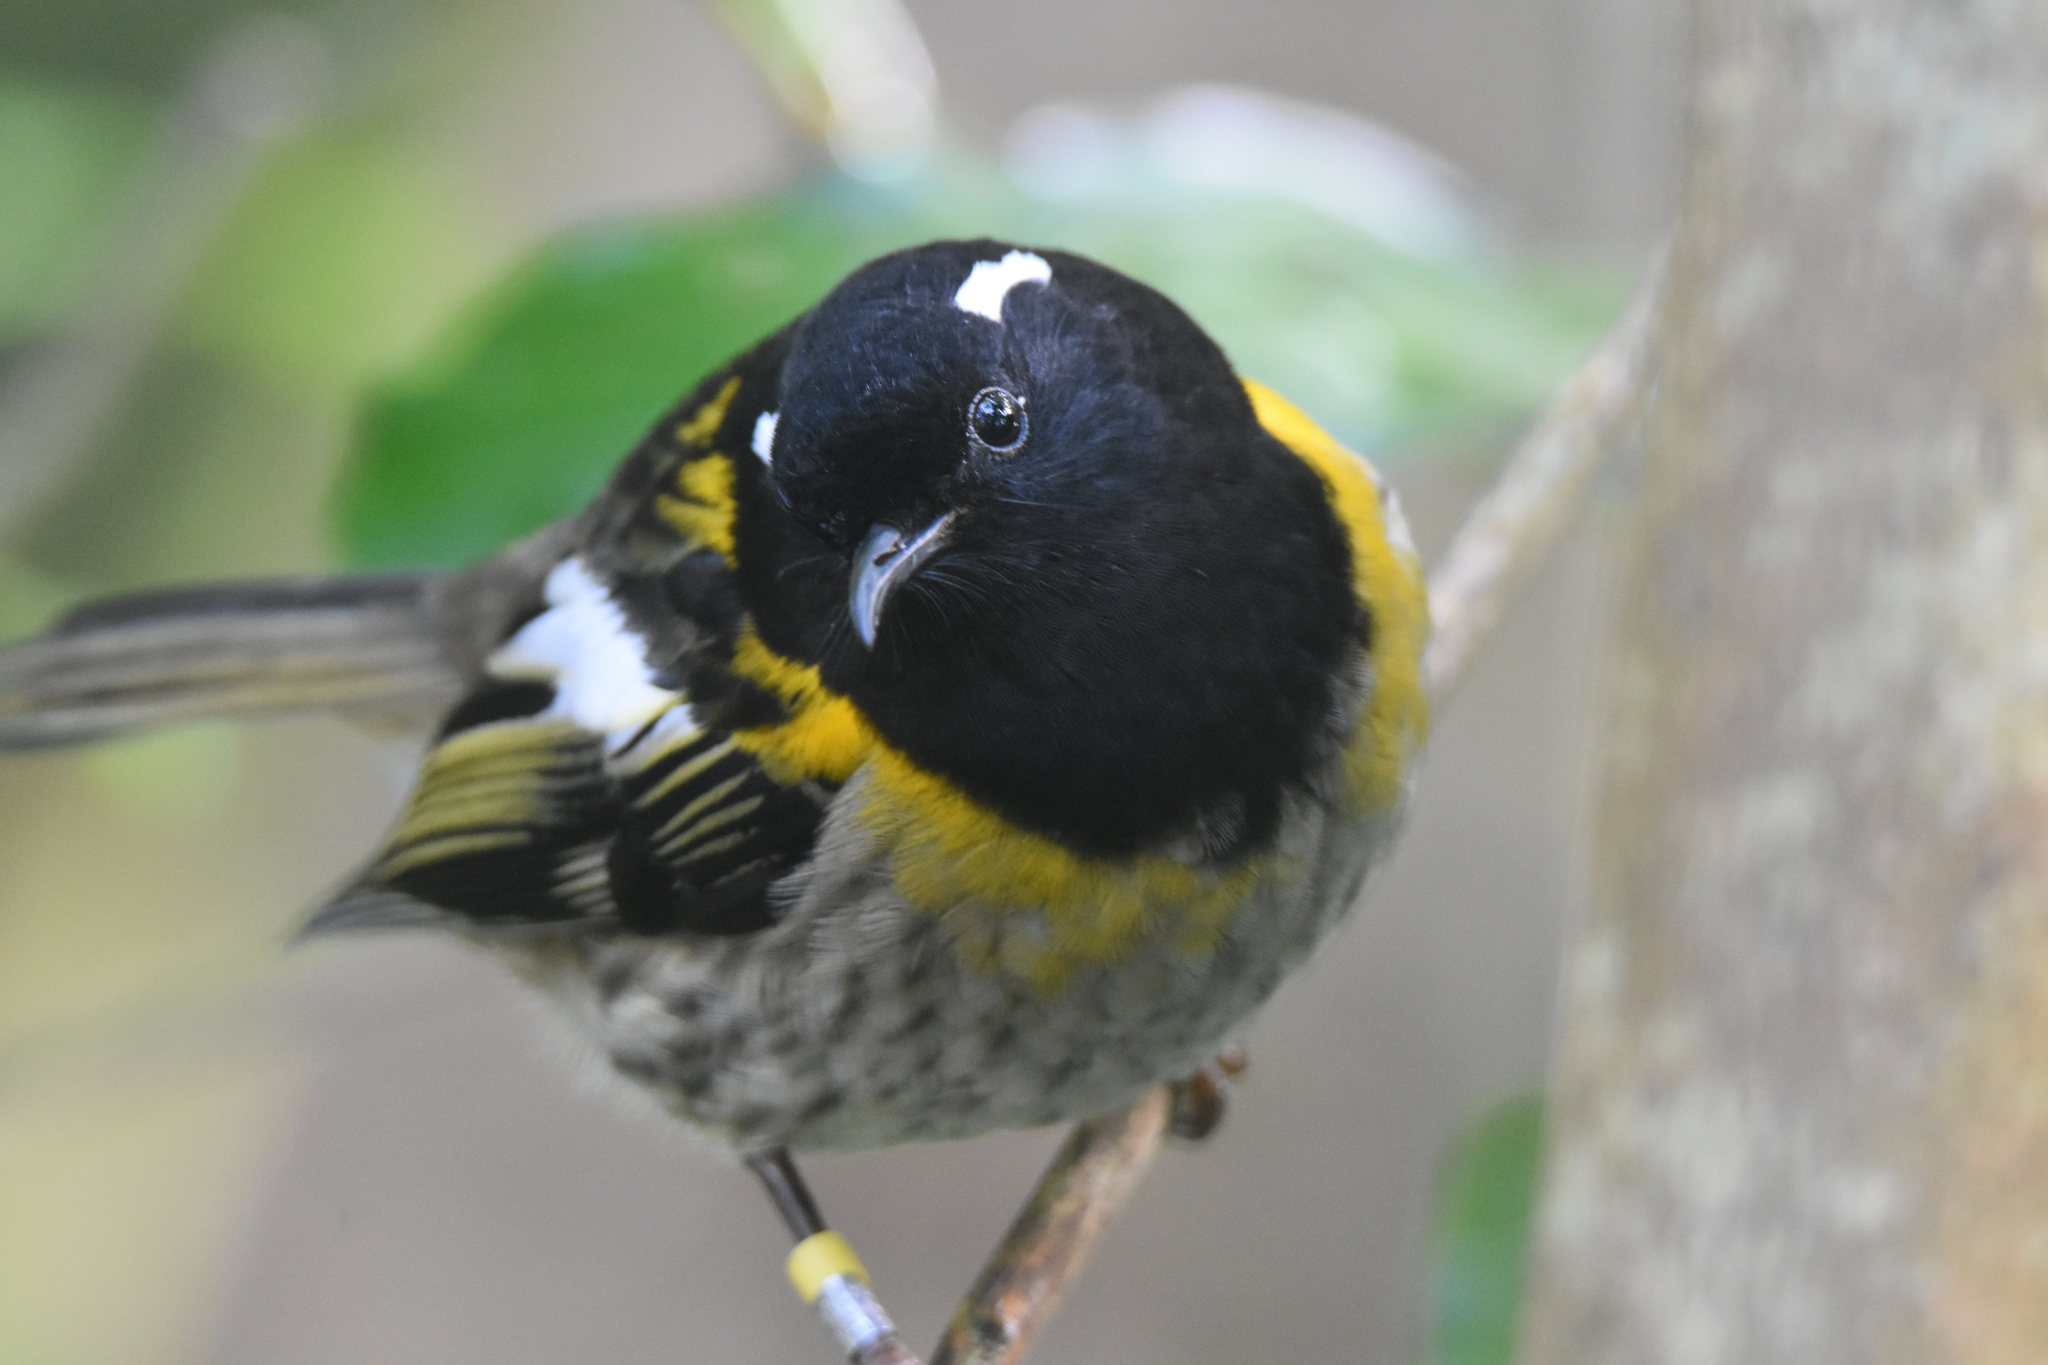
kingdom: Animalia
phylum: Chordata
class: Aves
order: Passeriformes
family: Notiomystidae
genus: Notiomystis
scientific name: Notiomystis cincta
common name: Stitchbird
